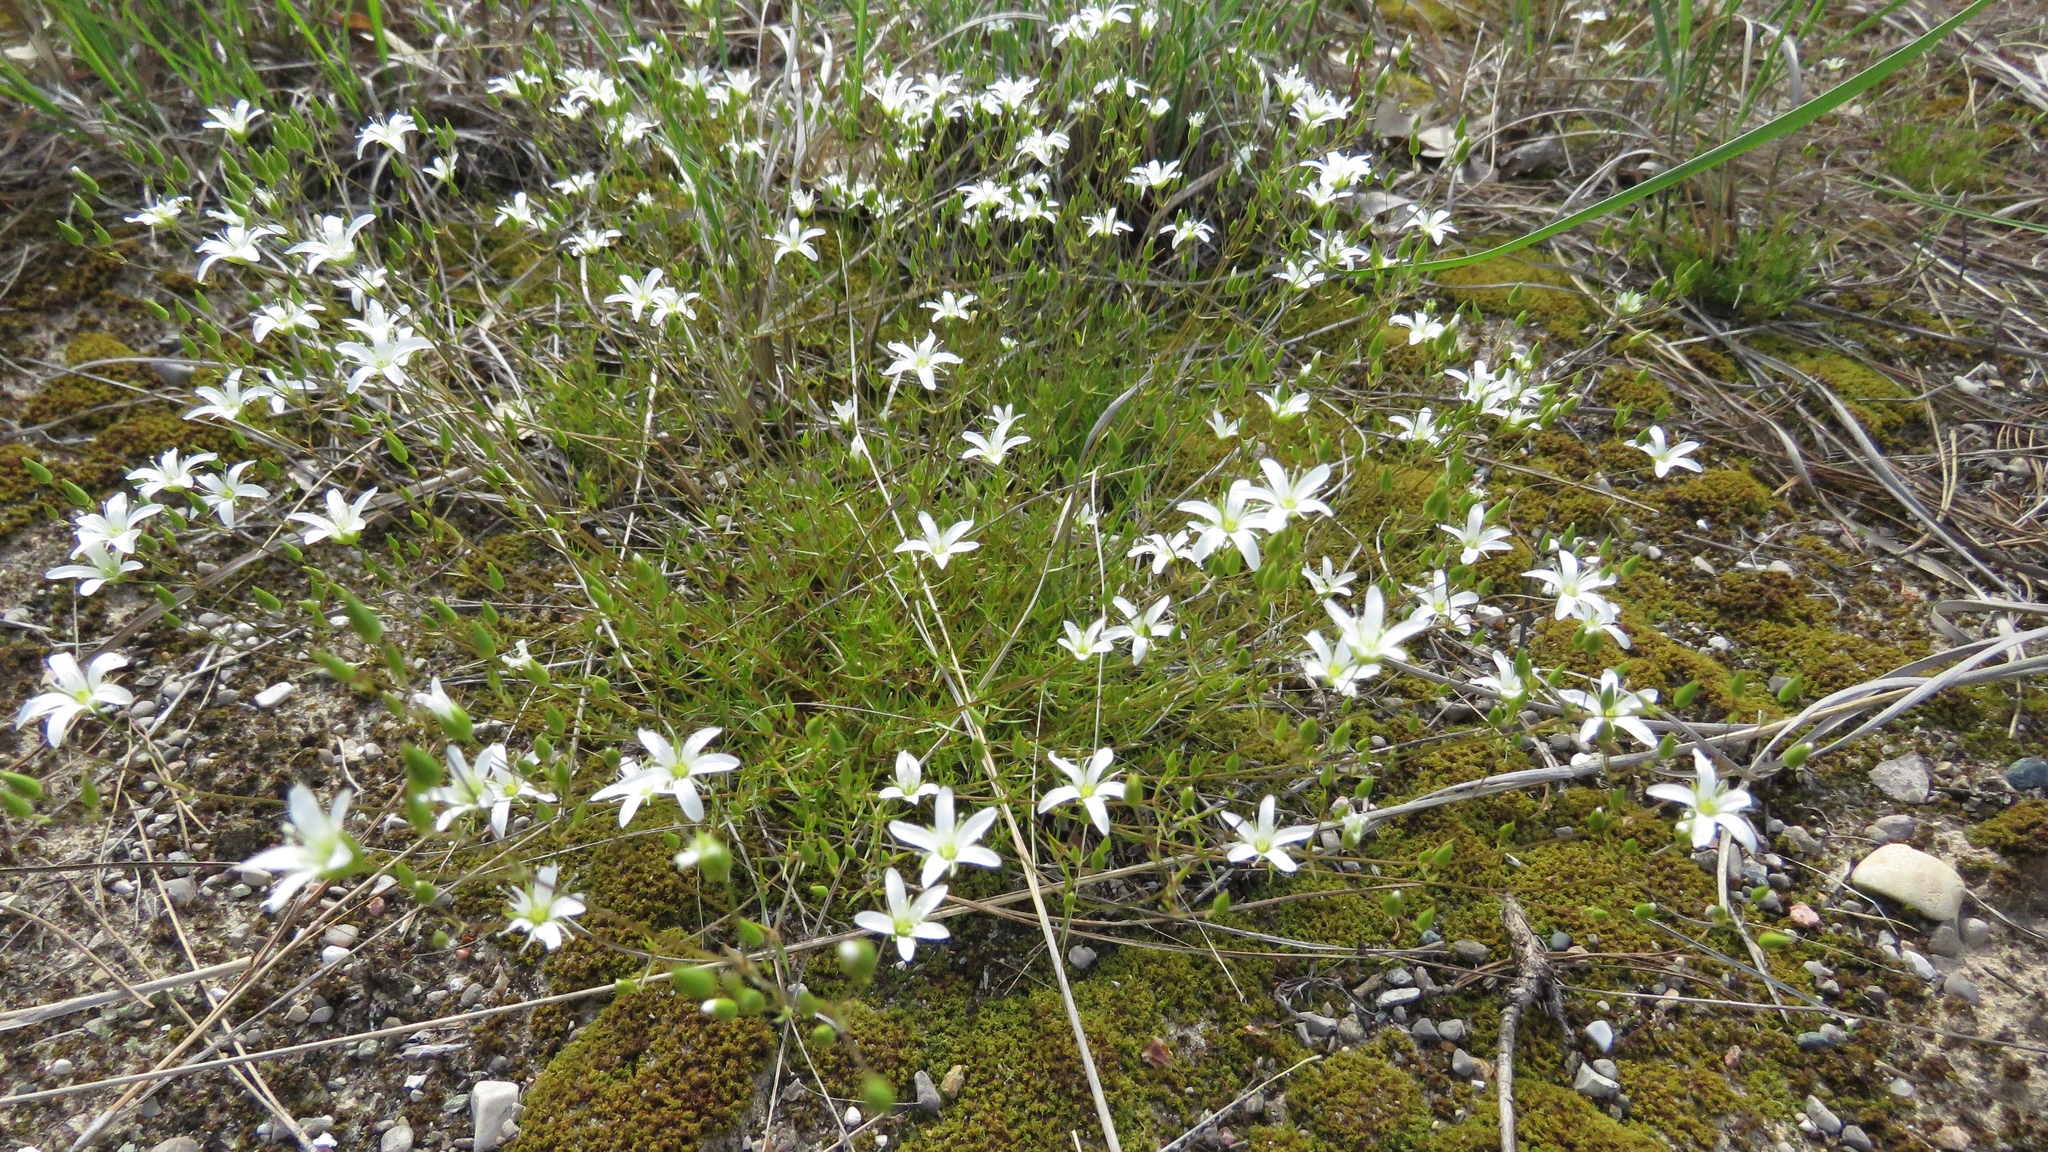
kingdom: Plantae
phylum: Tracheophyta
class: Magnoliopsida
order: Caryophyllales
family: Caryophyllaceae
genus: Sabulina
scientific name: Sabulina michauxii
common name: Michaux's stitchwort
